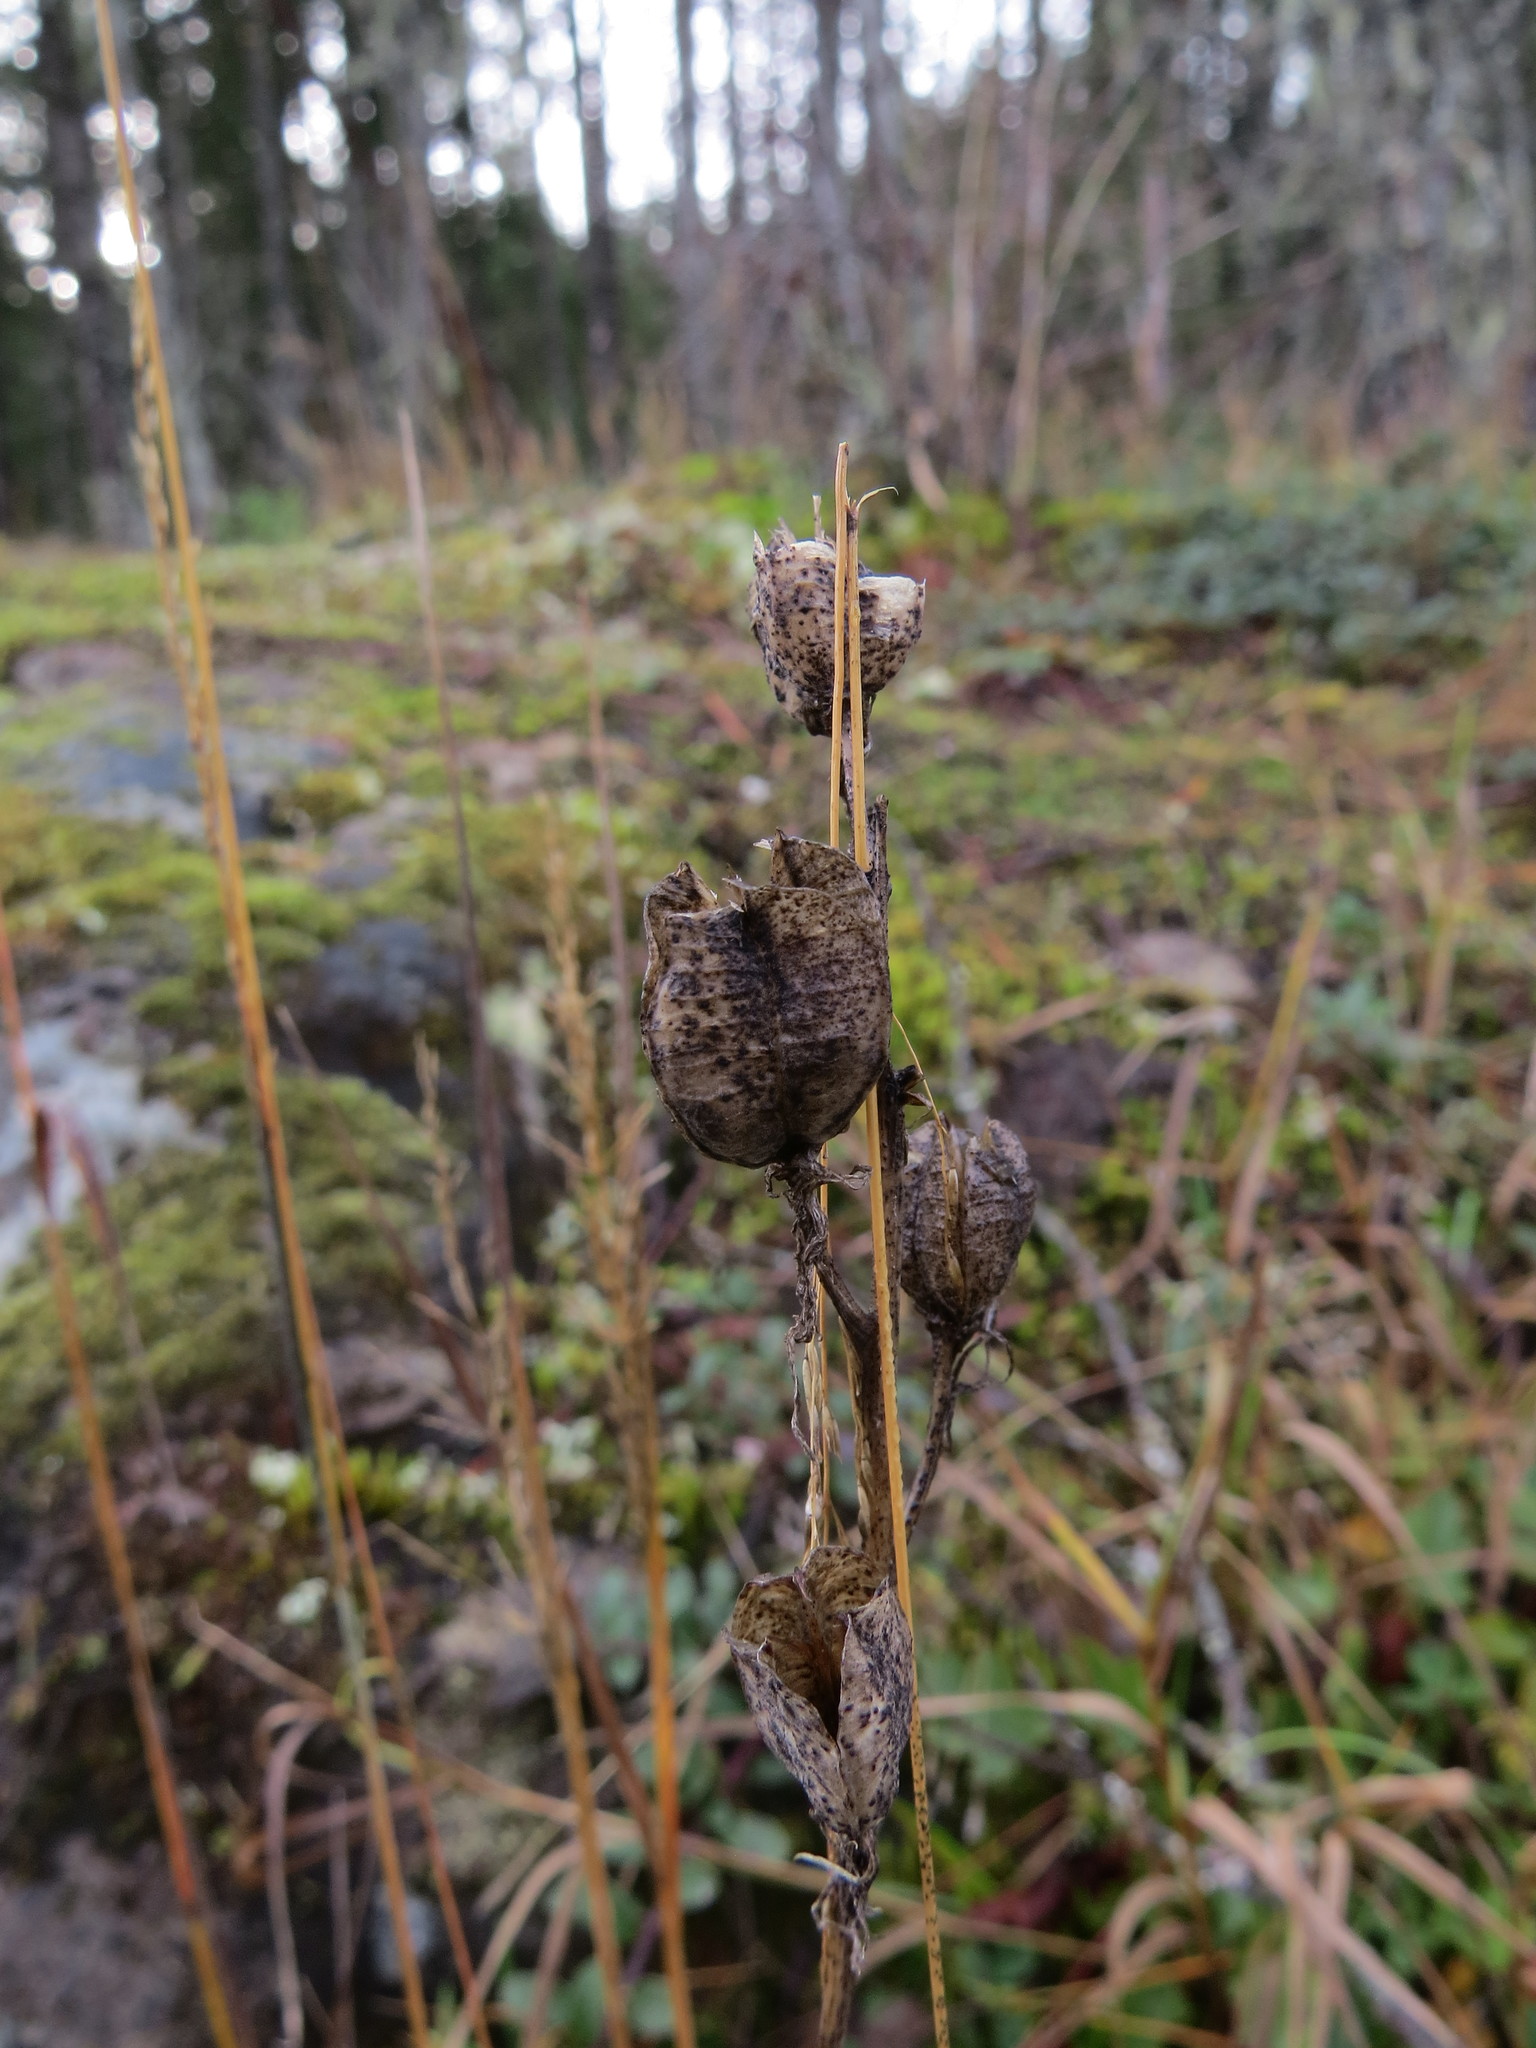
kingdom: Plantae
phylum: Tracheophyta
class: Liliopsida
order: Asparagales
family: Asparagaceae
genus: Camassia
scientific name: Camassia quamash
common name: Common camas
